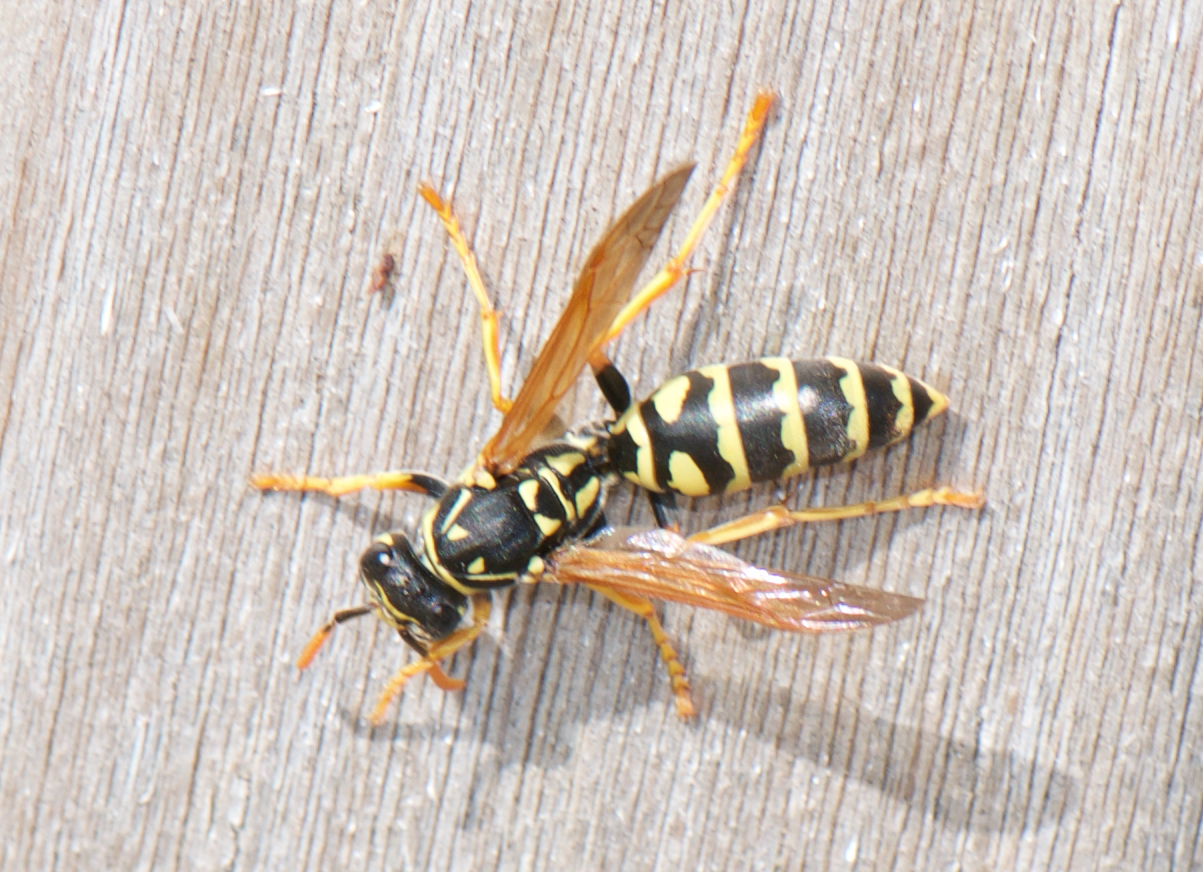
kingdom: Animalia
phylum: Arthropoda
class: Insecta
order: Hymenoptera
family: Eumenidae
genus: Polistes
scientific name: Polistes dominula
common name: Paper wasp
